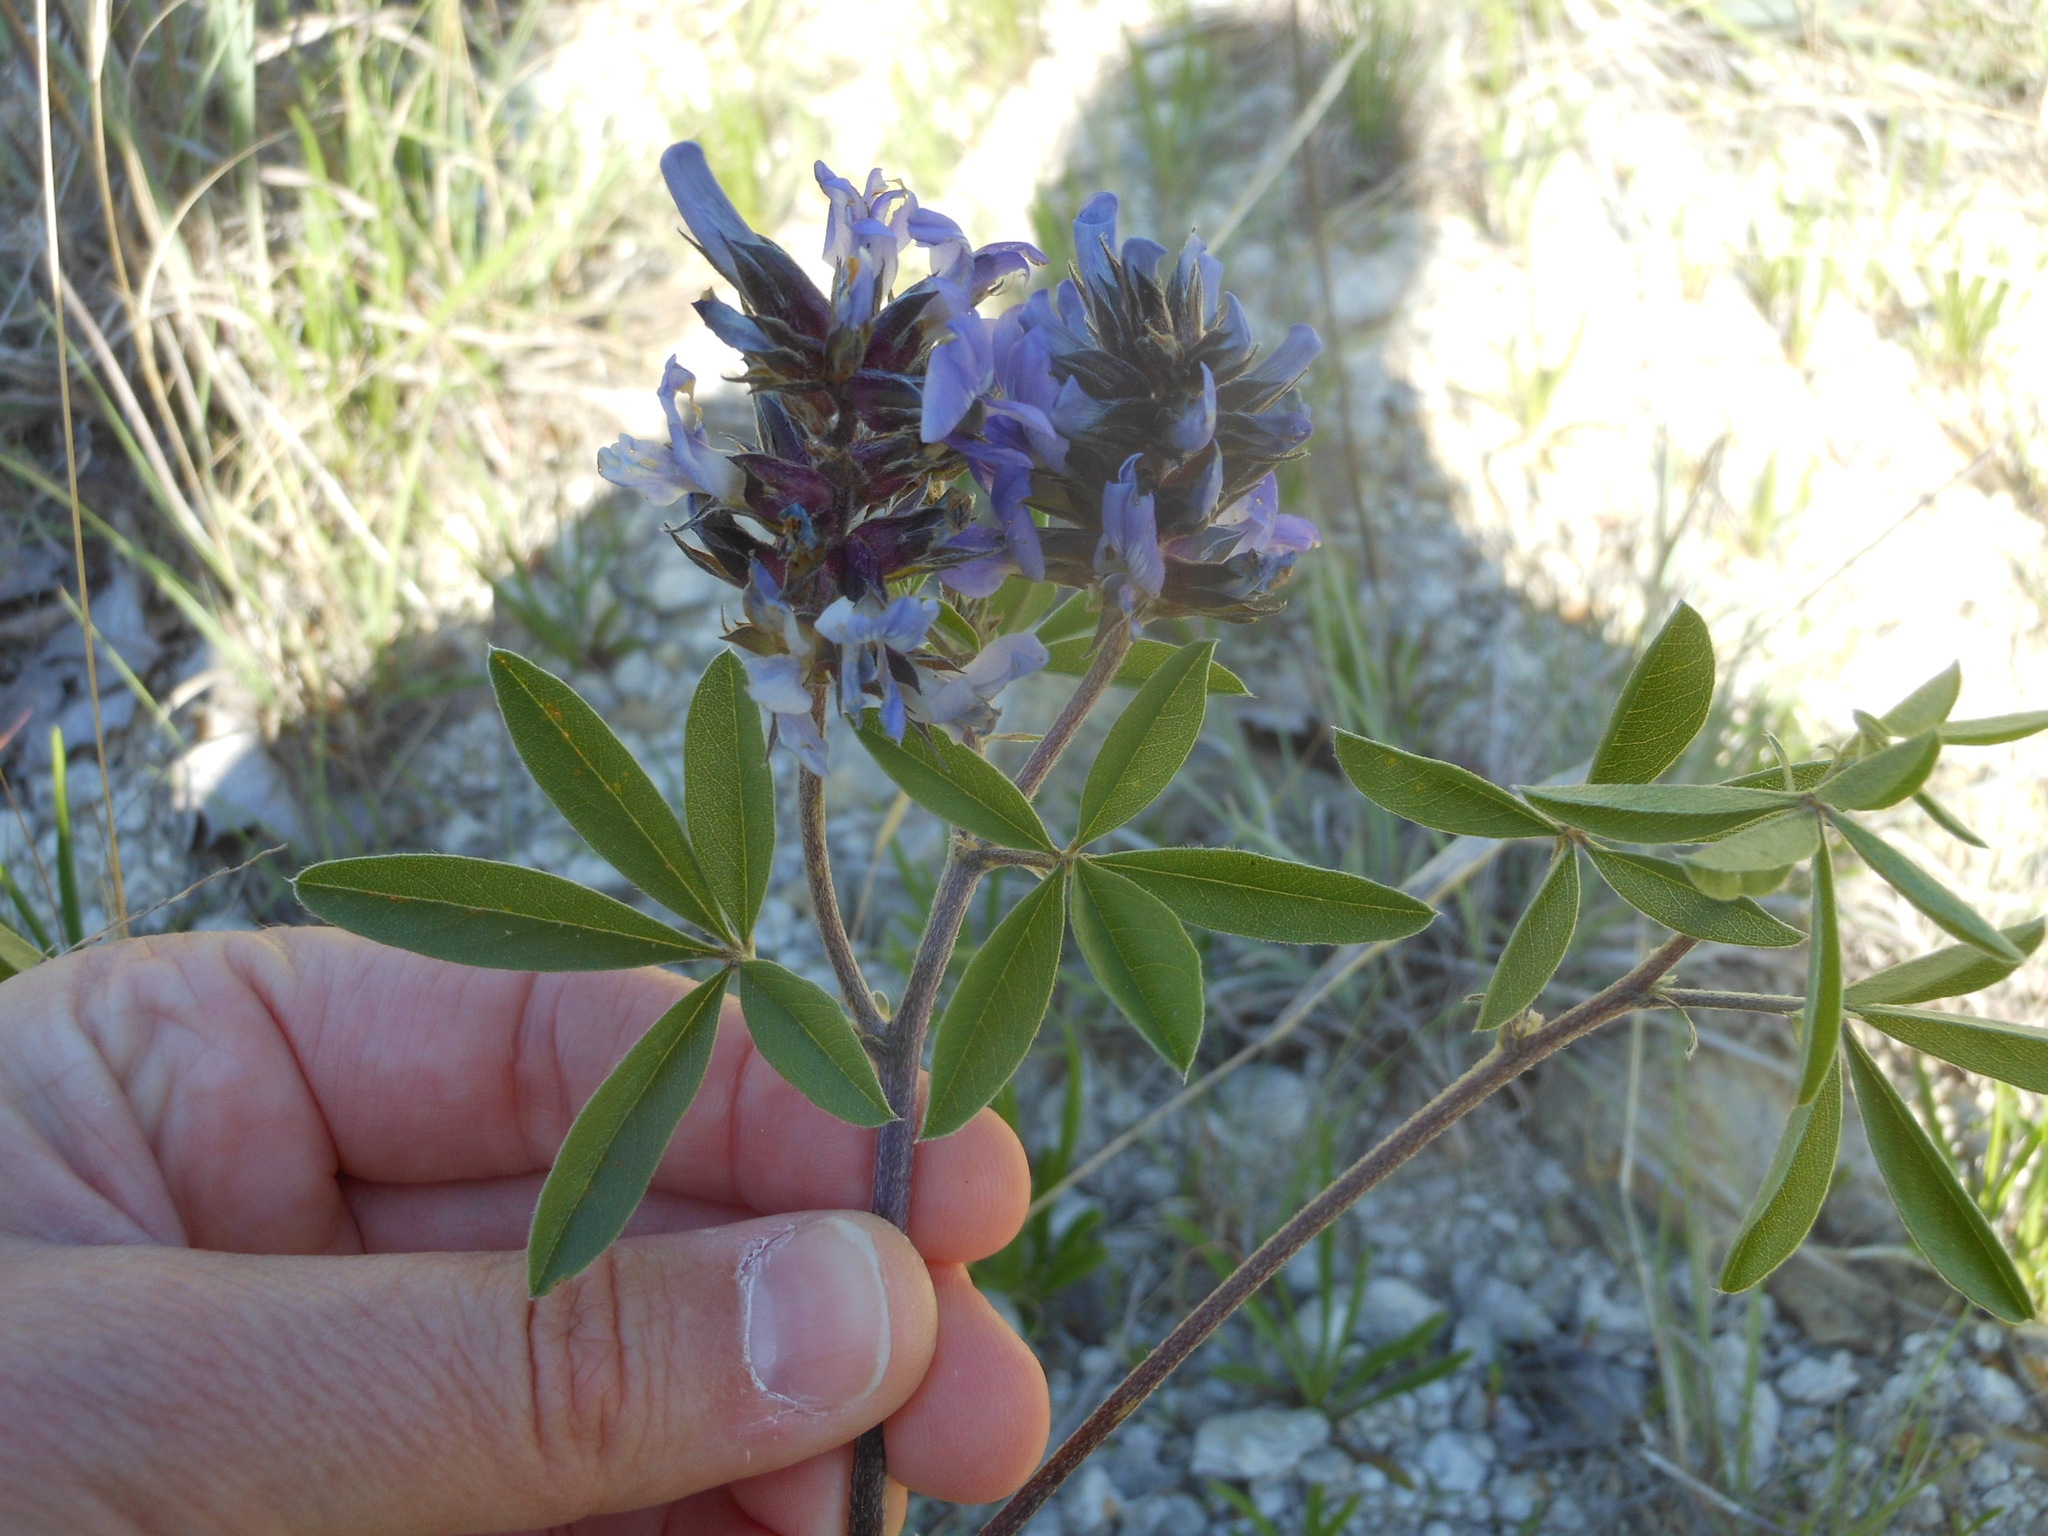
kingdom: Plantae
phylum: Tracheophyta
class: Magnoliopsida
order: Fabales
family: Fabaceae
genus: Pediomelum
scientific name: Pediomelum cuspidatum
